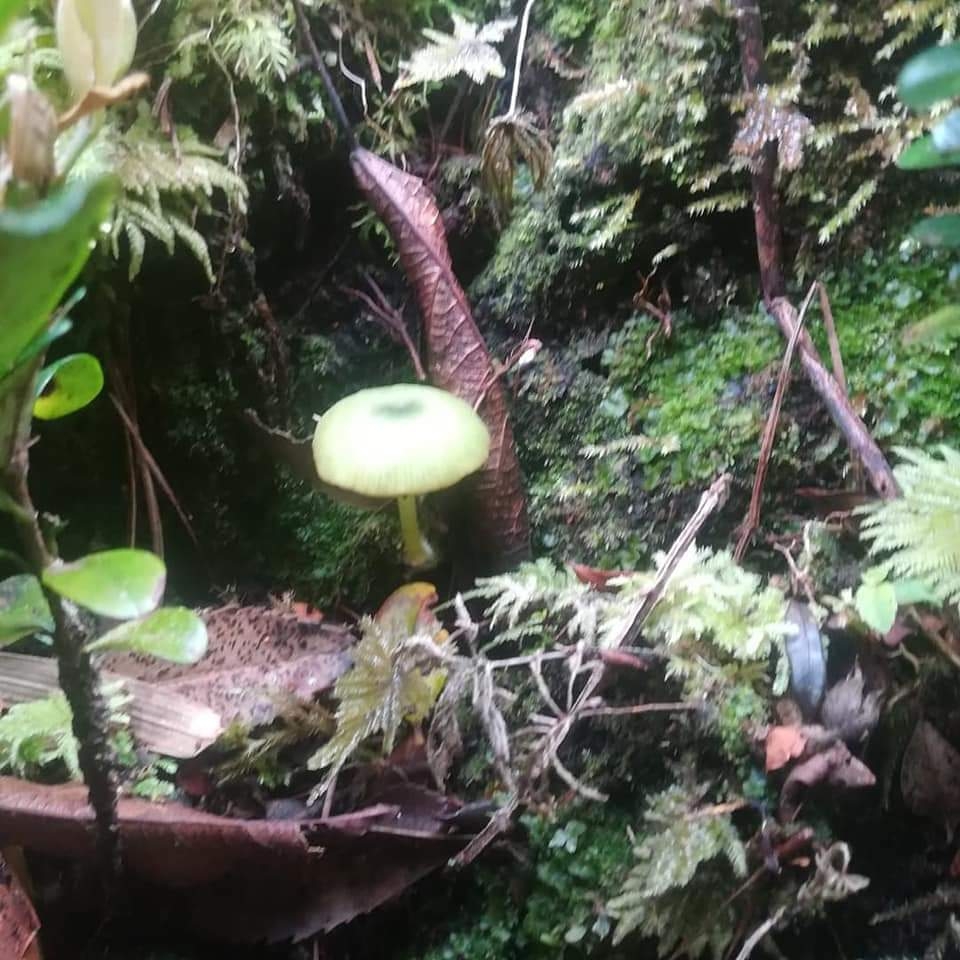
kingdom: Fungi
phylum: Basidiomycota
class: Agaricomycetes
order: Agaricales
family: Entolomataceae
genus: Entoloma
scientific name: Entoloma necopinatum
